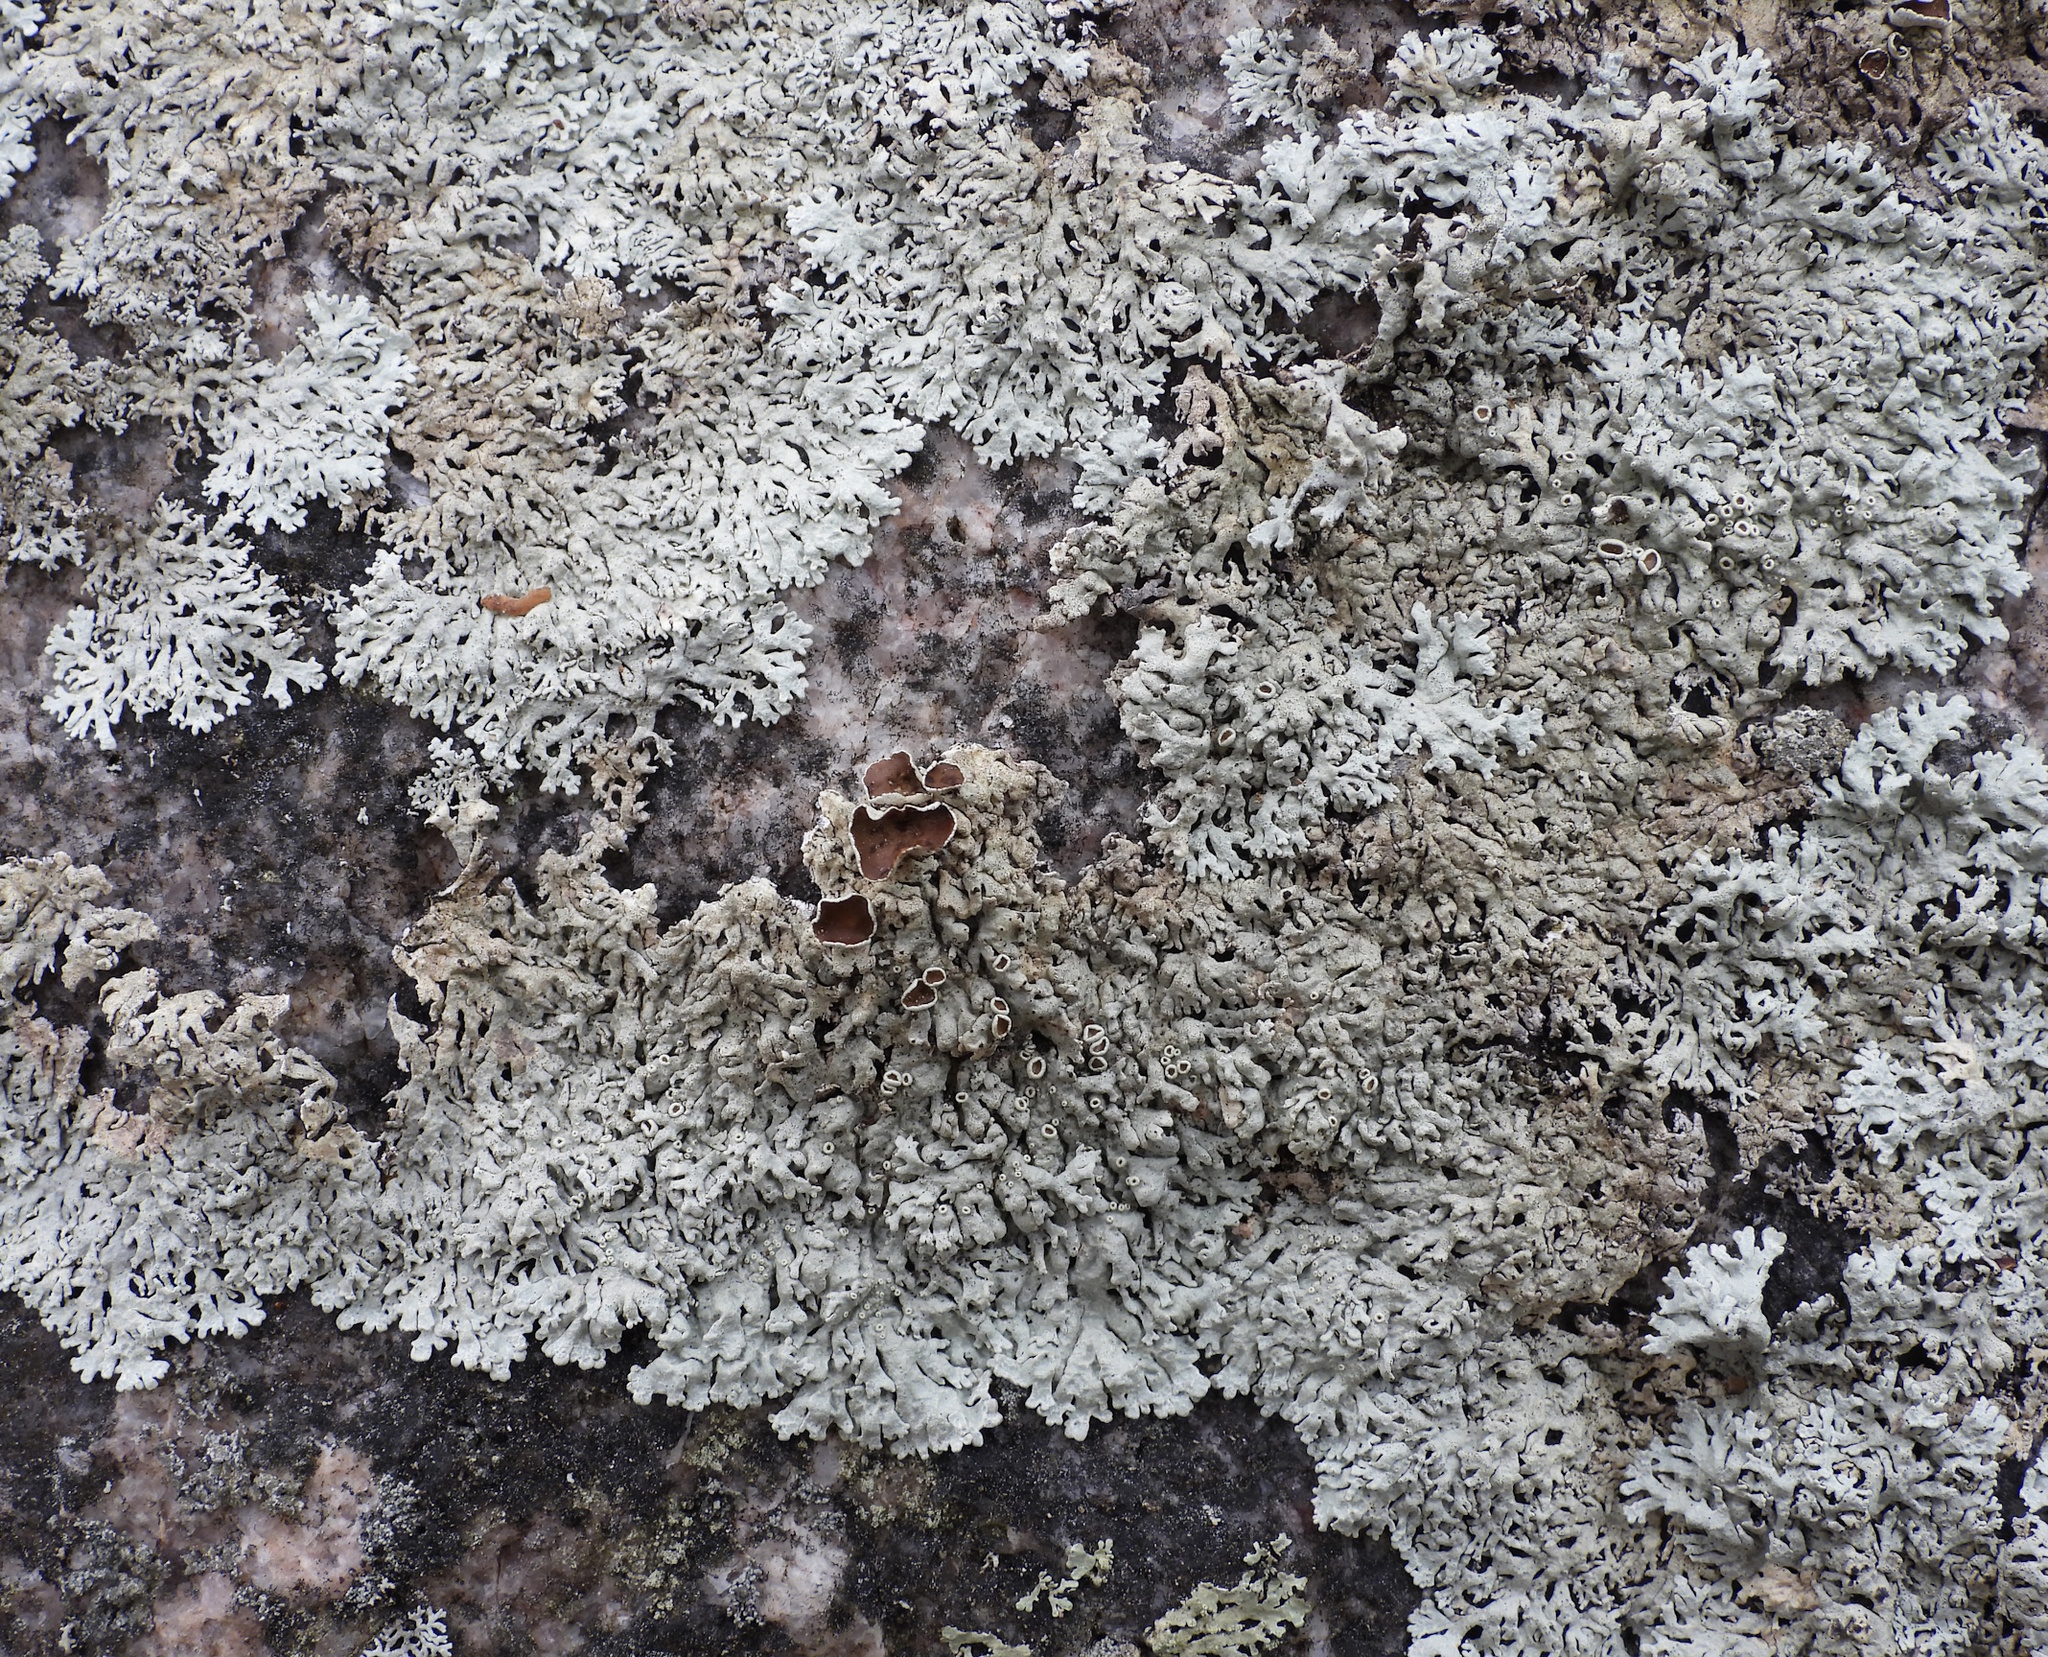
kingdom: Fungi
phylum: Ascomycota
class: Lecanoromycetes
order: Lecanorales
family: Parmeliaceae
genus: Arctoparmelia
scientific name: Arctoparmelia centrifuga
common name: Concentric ring lichen
